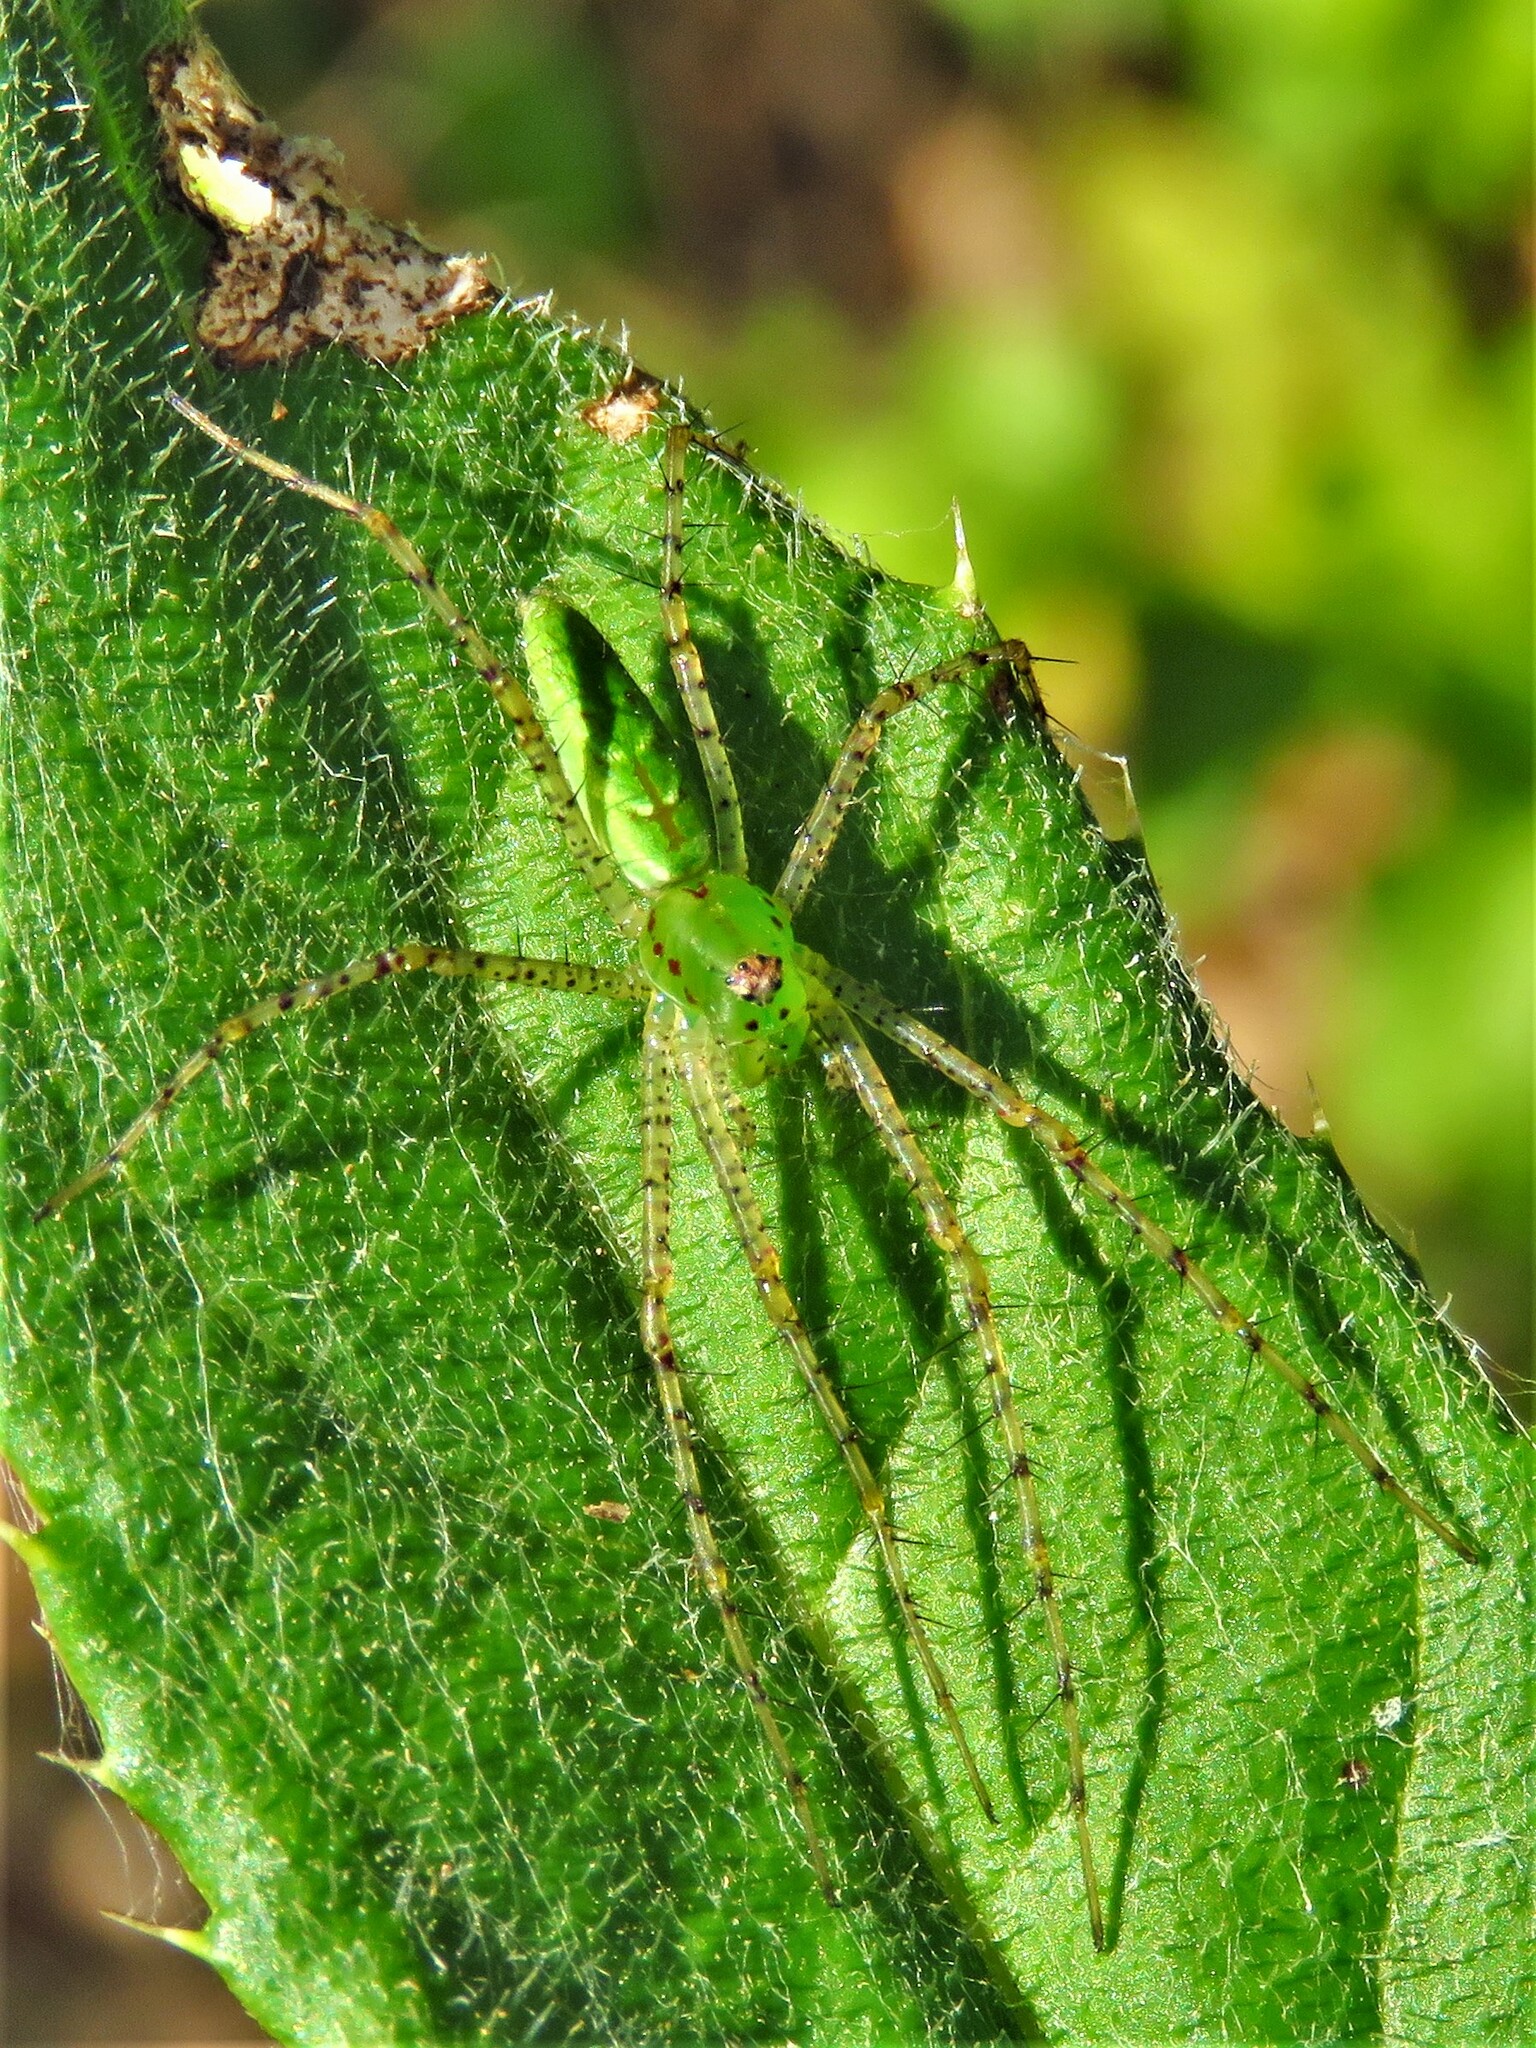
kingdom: Animalia
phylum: Arthropoda
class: Arachnida
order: Araneae
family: Oxyopidae
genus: Peucetia
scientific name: Peucetia viridans
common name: Lynx spiders
